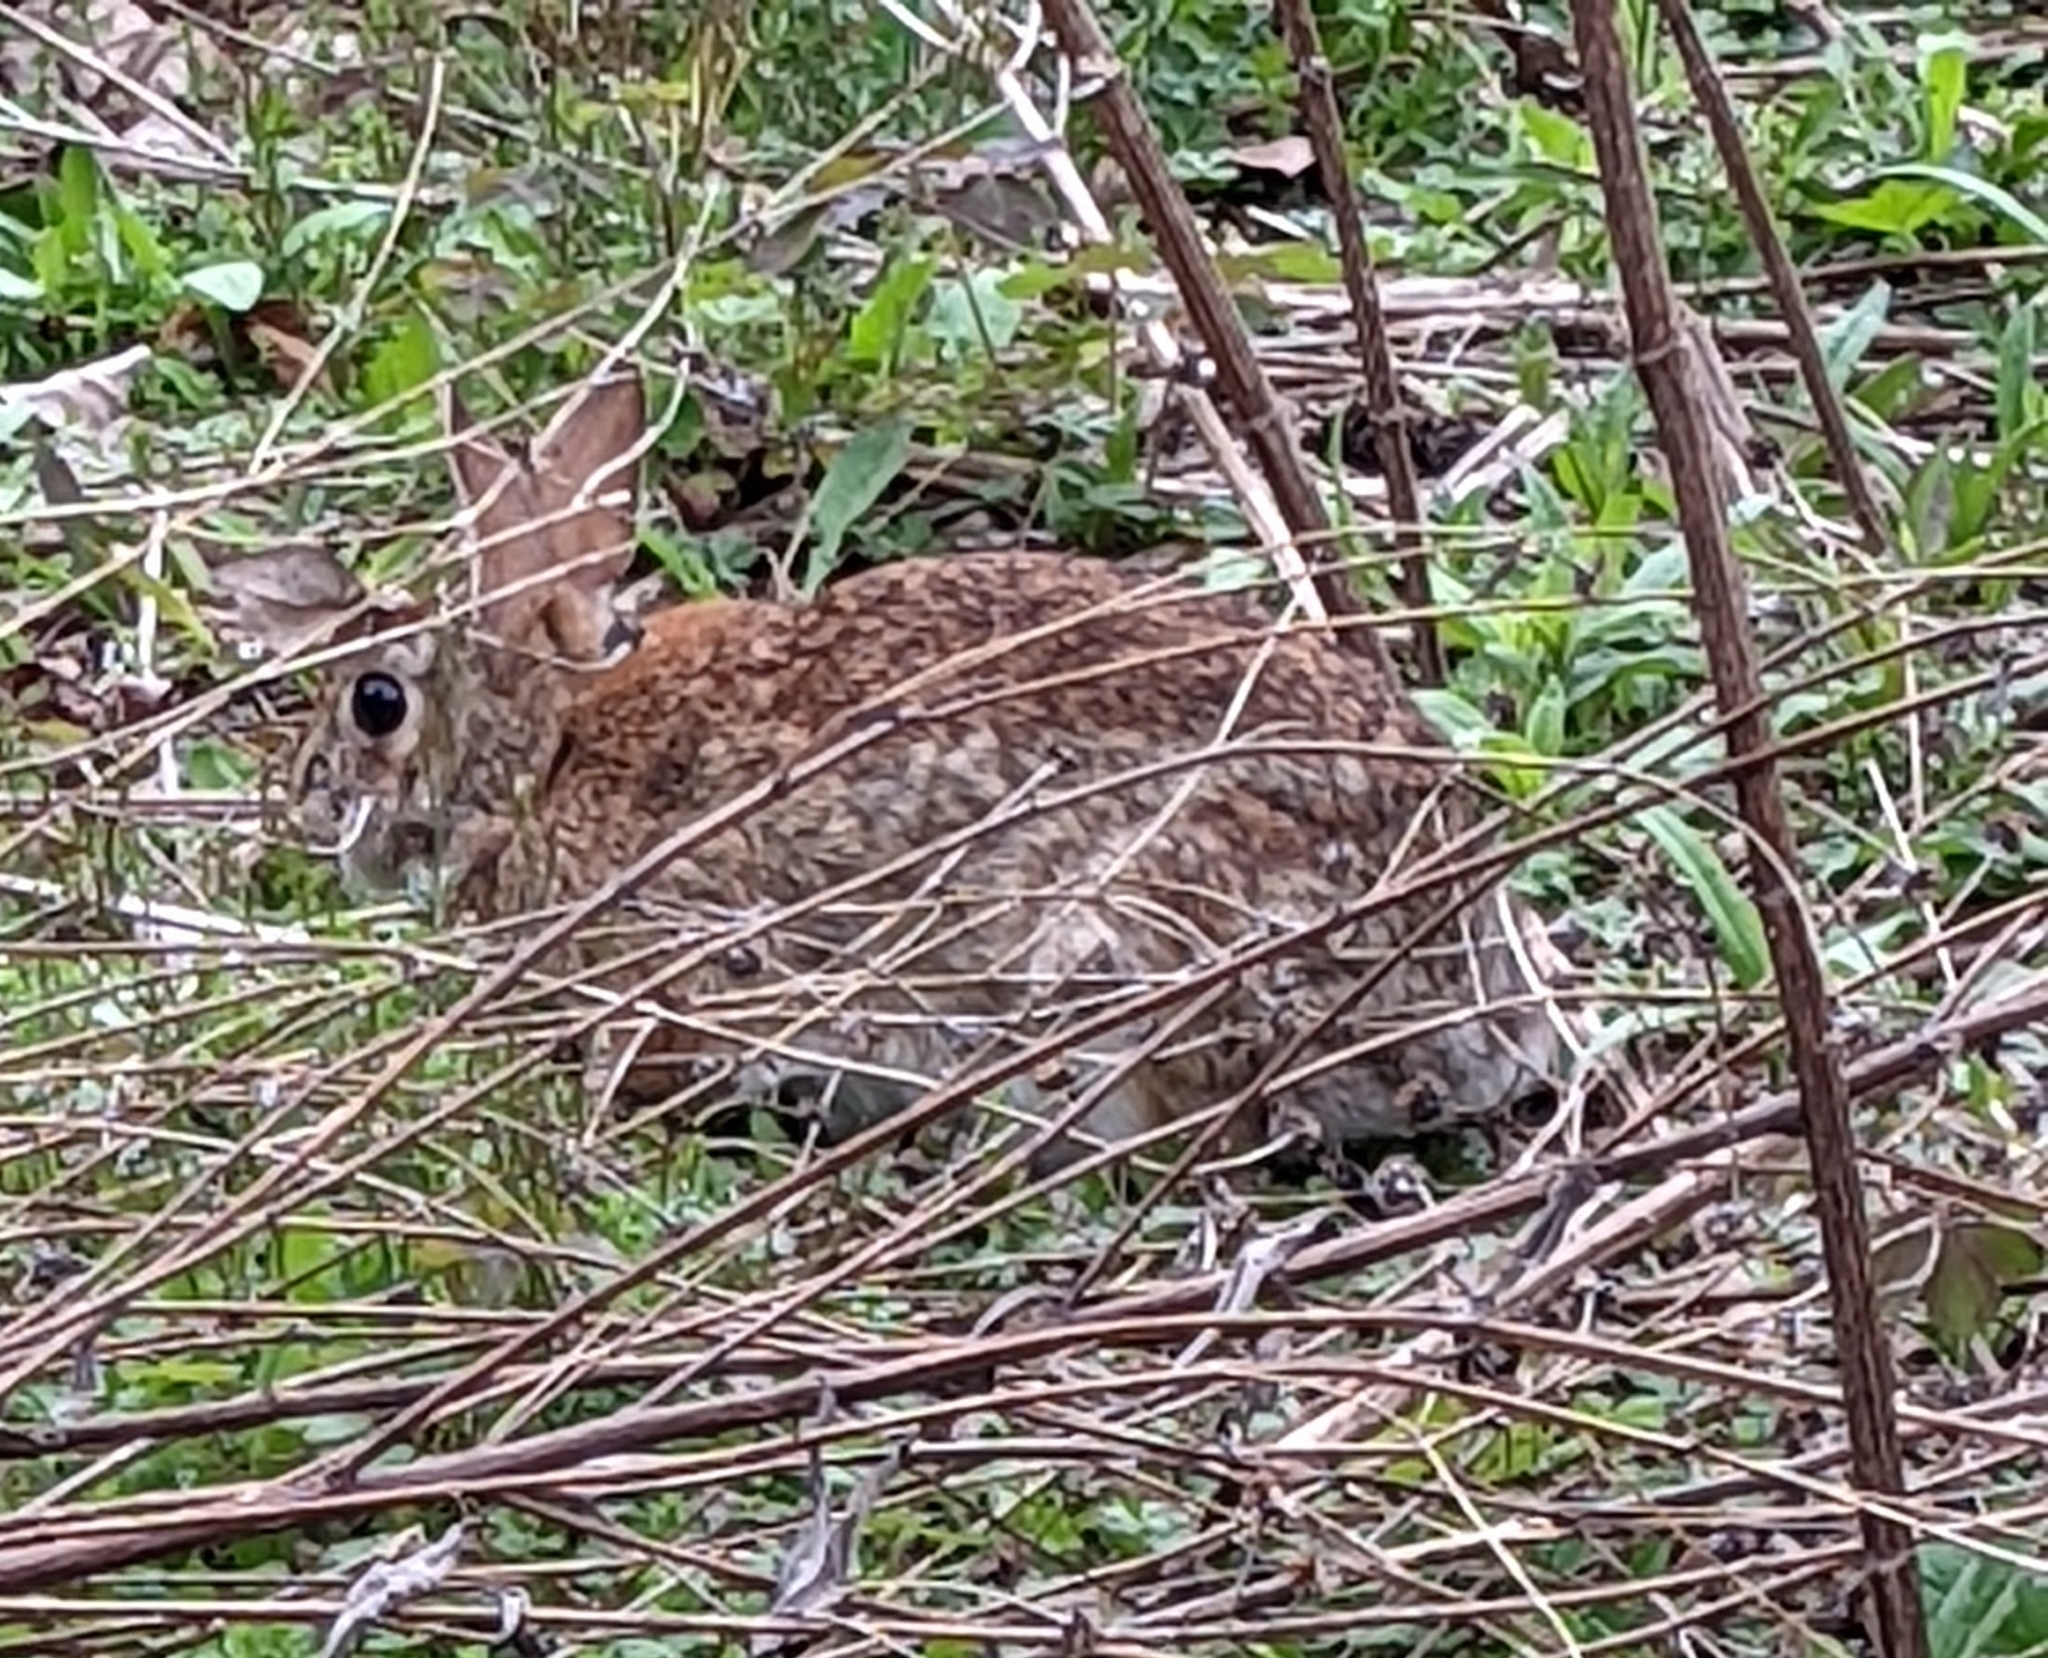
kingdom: Animalia
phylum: Chordata
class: Mammalia
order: Lagomorpha
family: Leporidae
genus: Sylvilagus
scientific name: Sylvilagus floridanus
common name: Eastern cottontail
